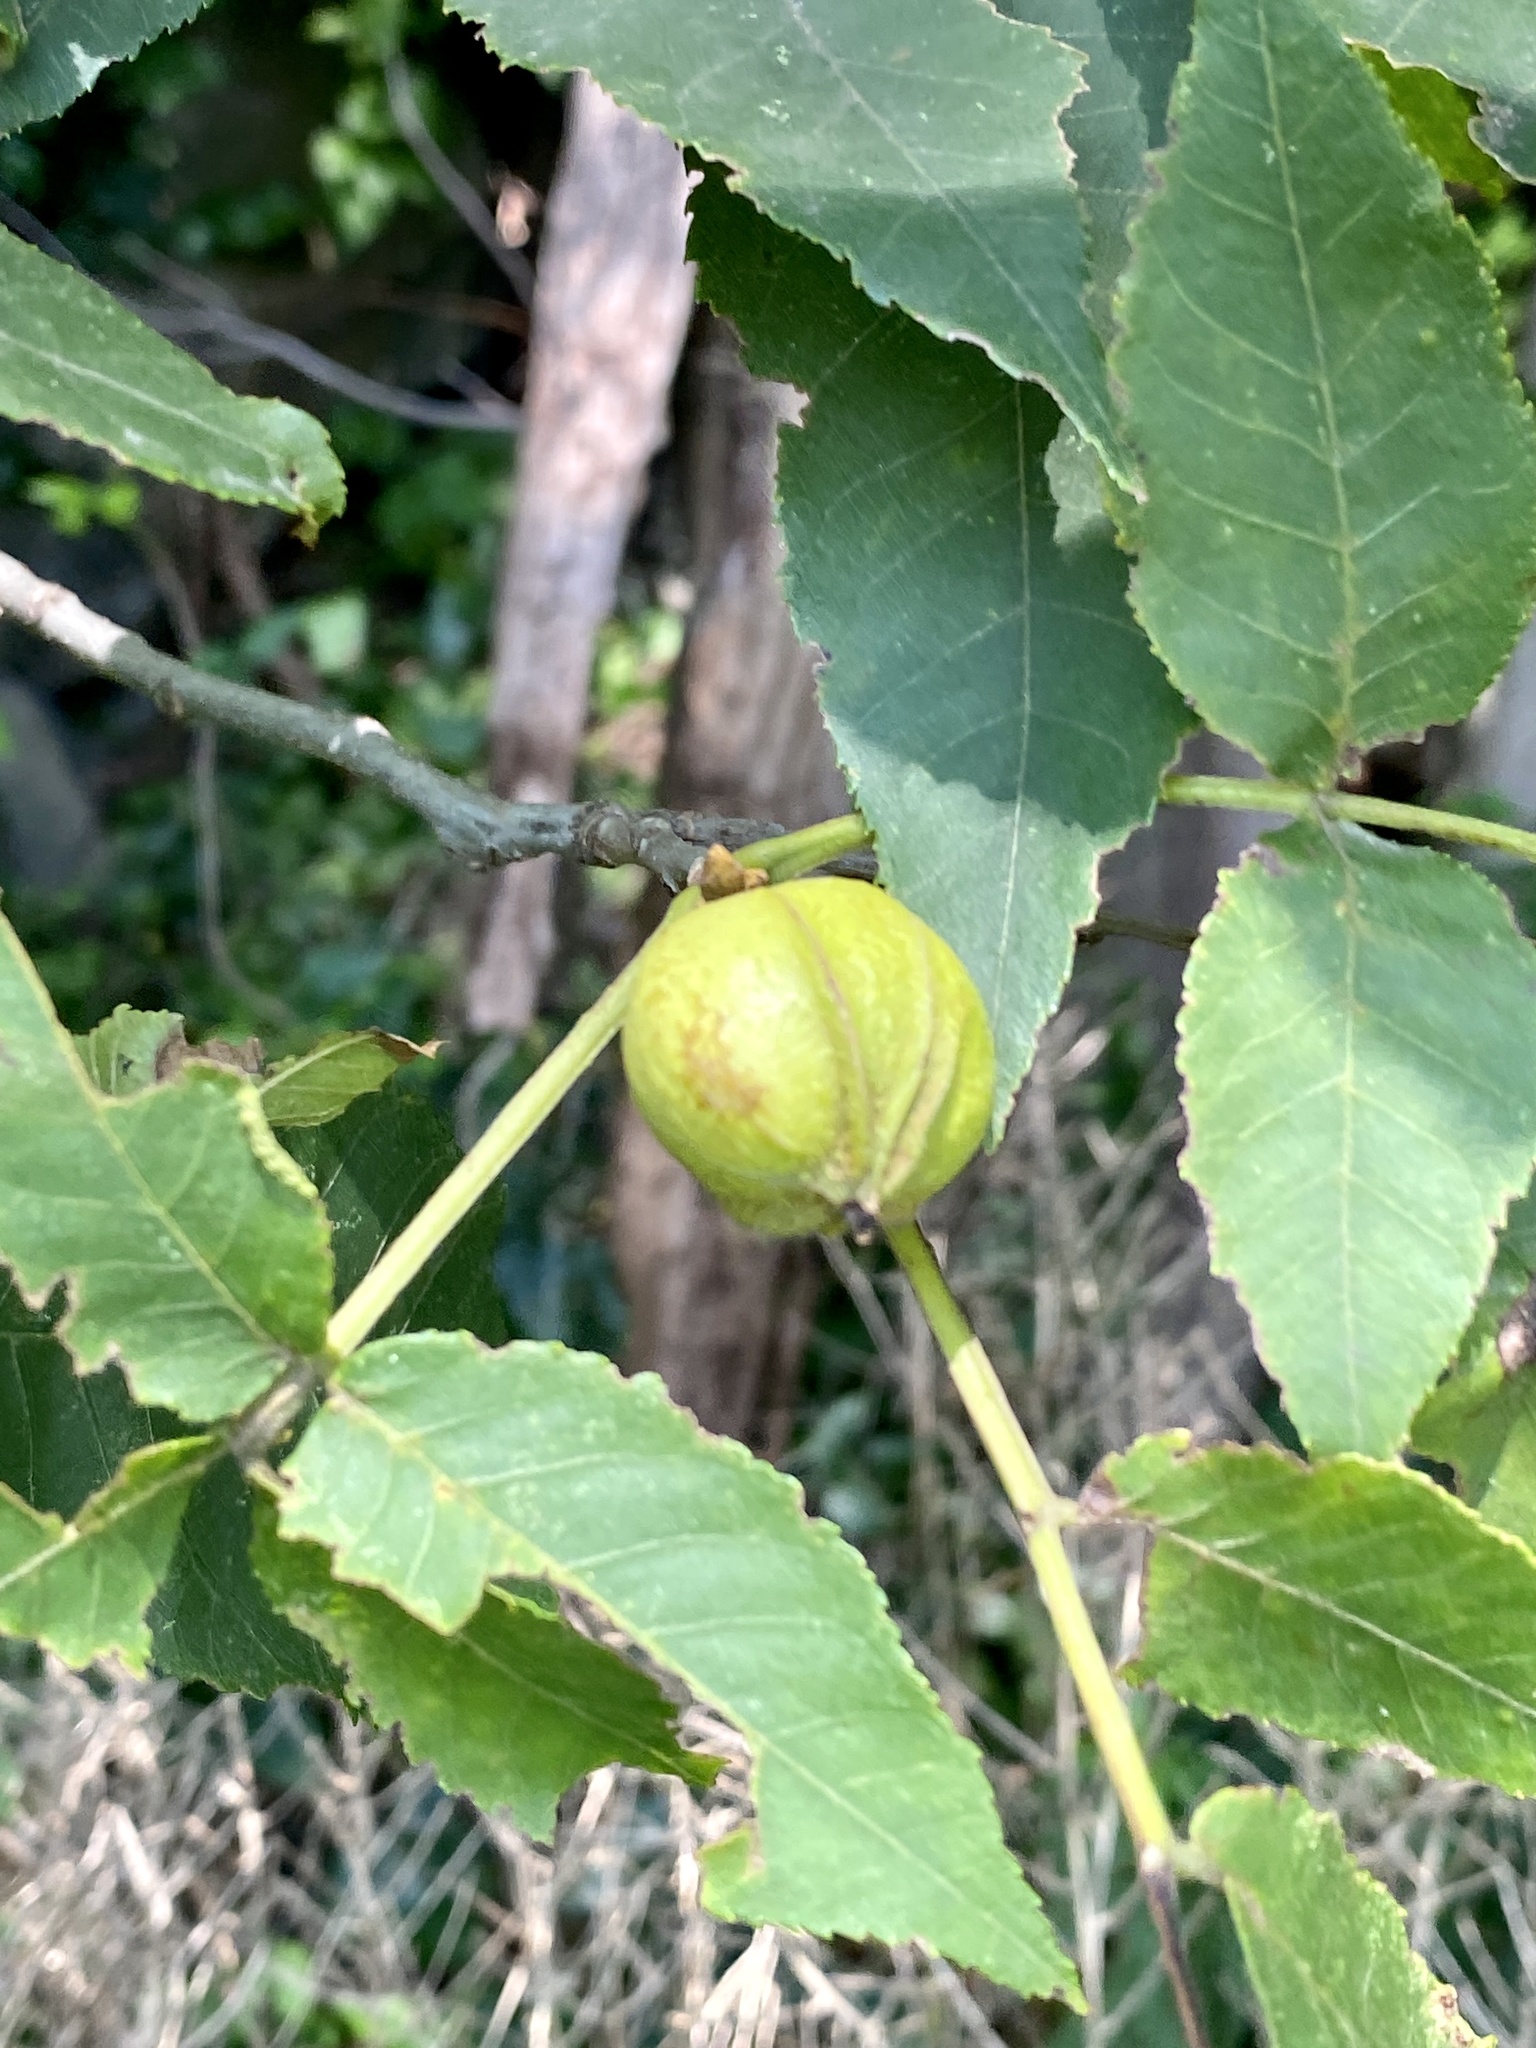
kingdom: Plantae
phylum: Tracheophyta
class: Magnoliopsida
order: Fagales
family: Juglandaceae
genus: Carya
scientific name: Carya cordiformis
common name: Bitternut hickory
